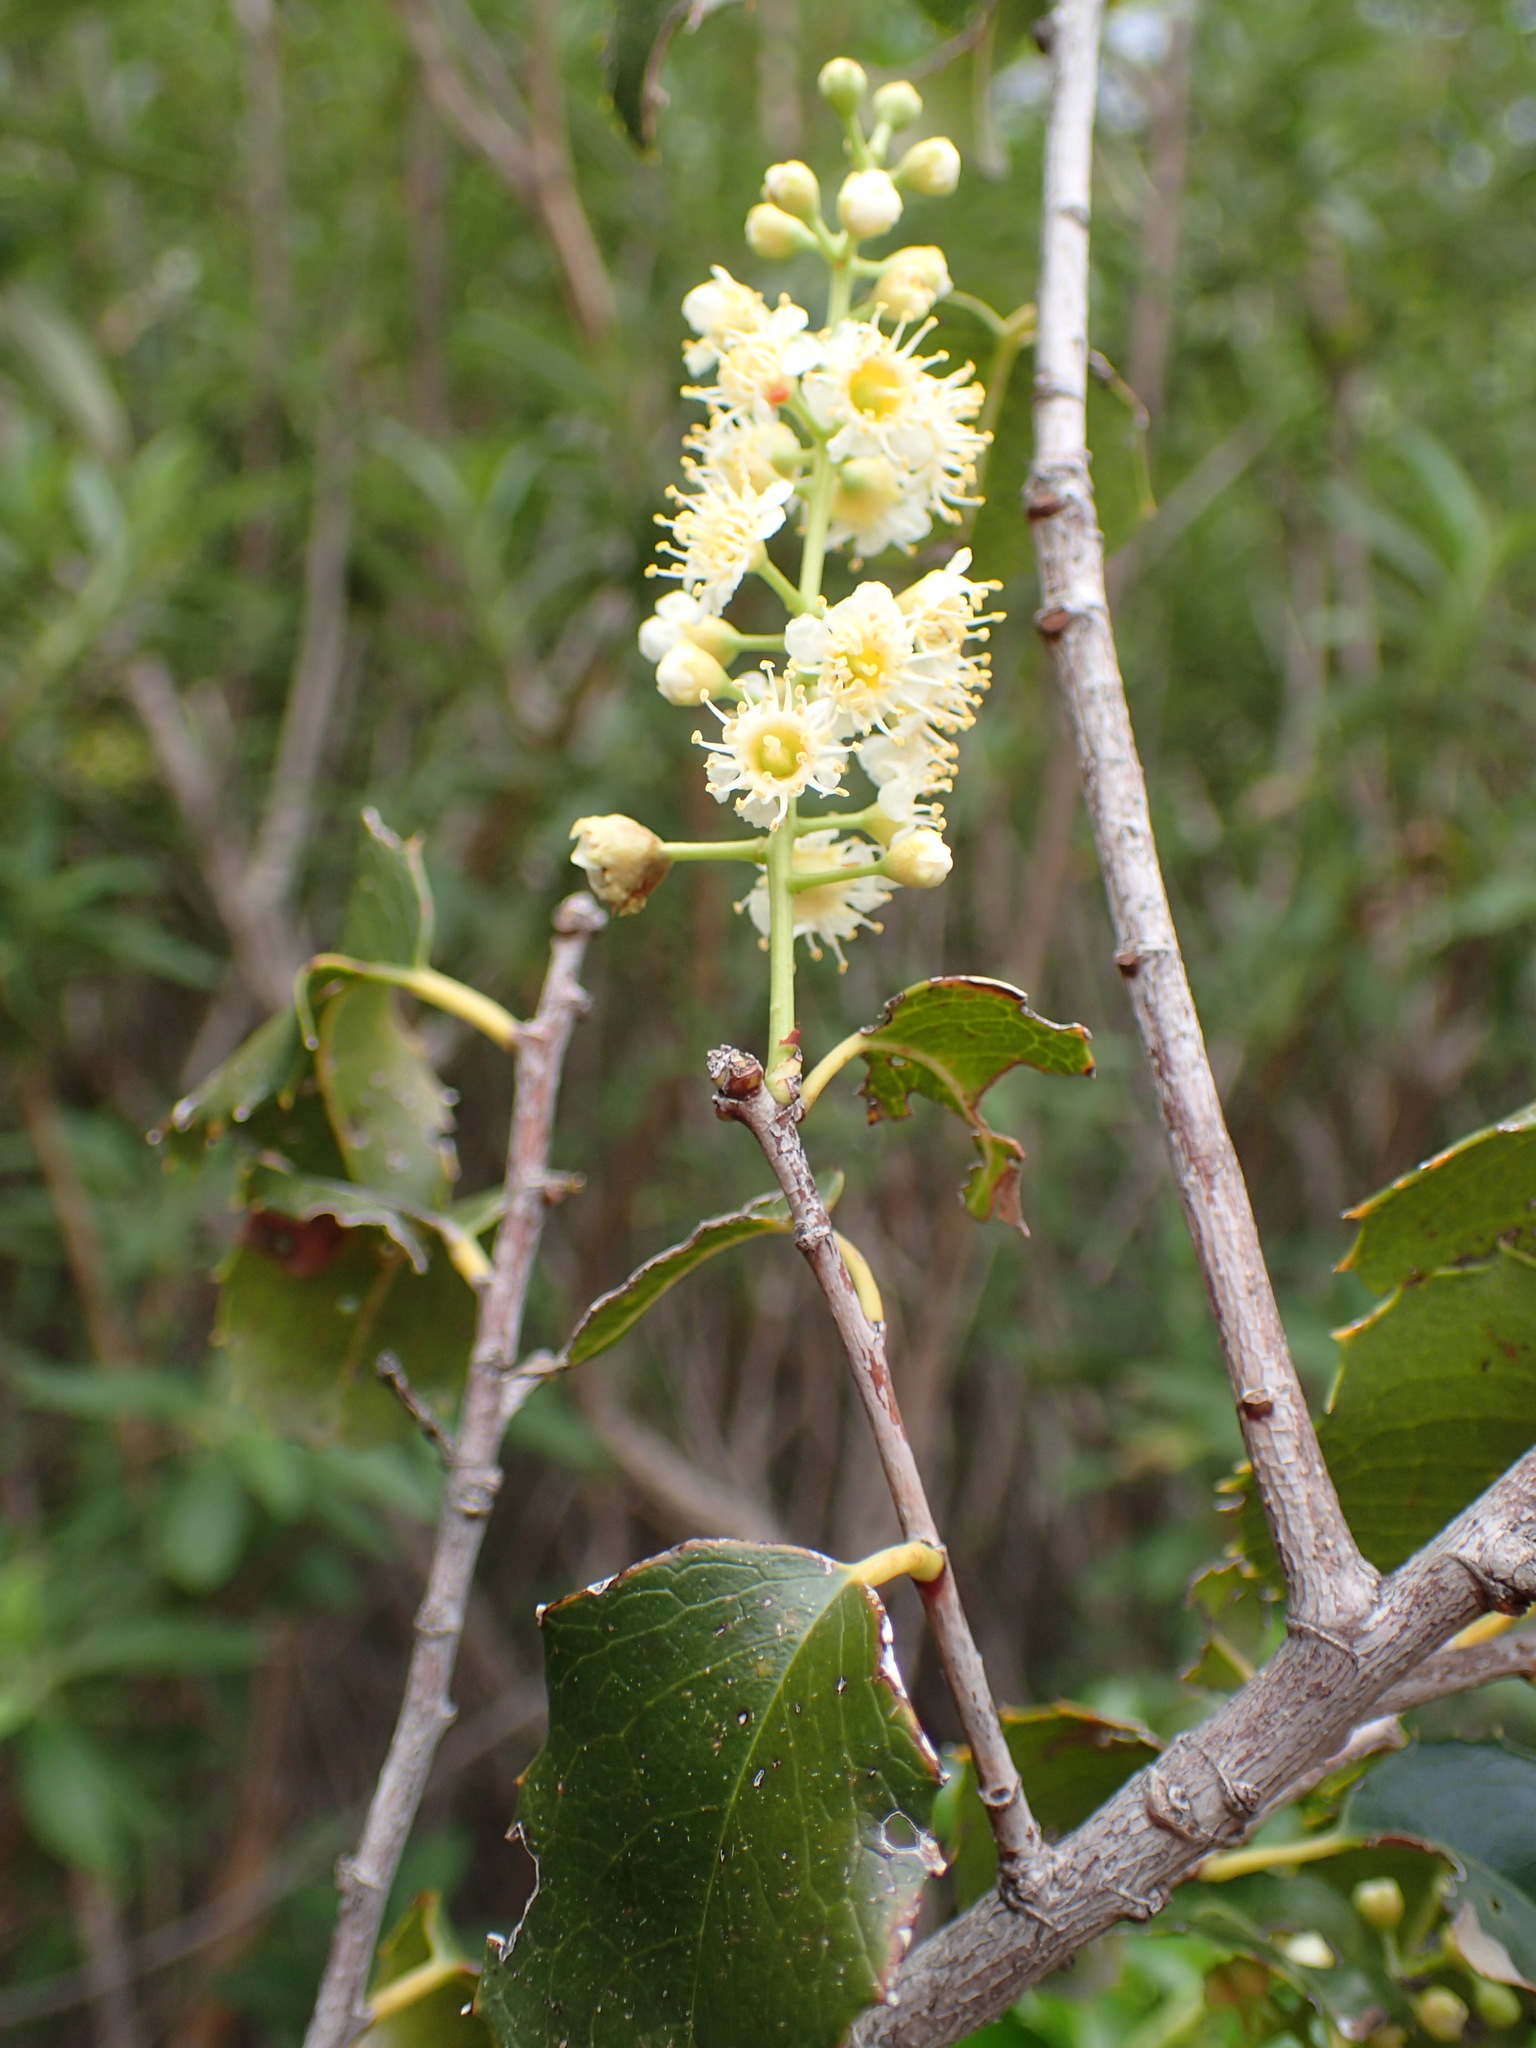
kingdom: Plantae
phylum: Tracheophyta
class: Magnoliopsida
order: Rosales
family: Rosaceae
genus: Prunus
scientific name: Prunus ilicifolia
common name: Hollyleaf cherry
